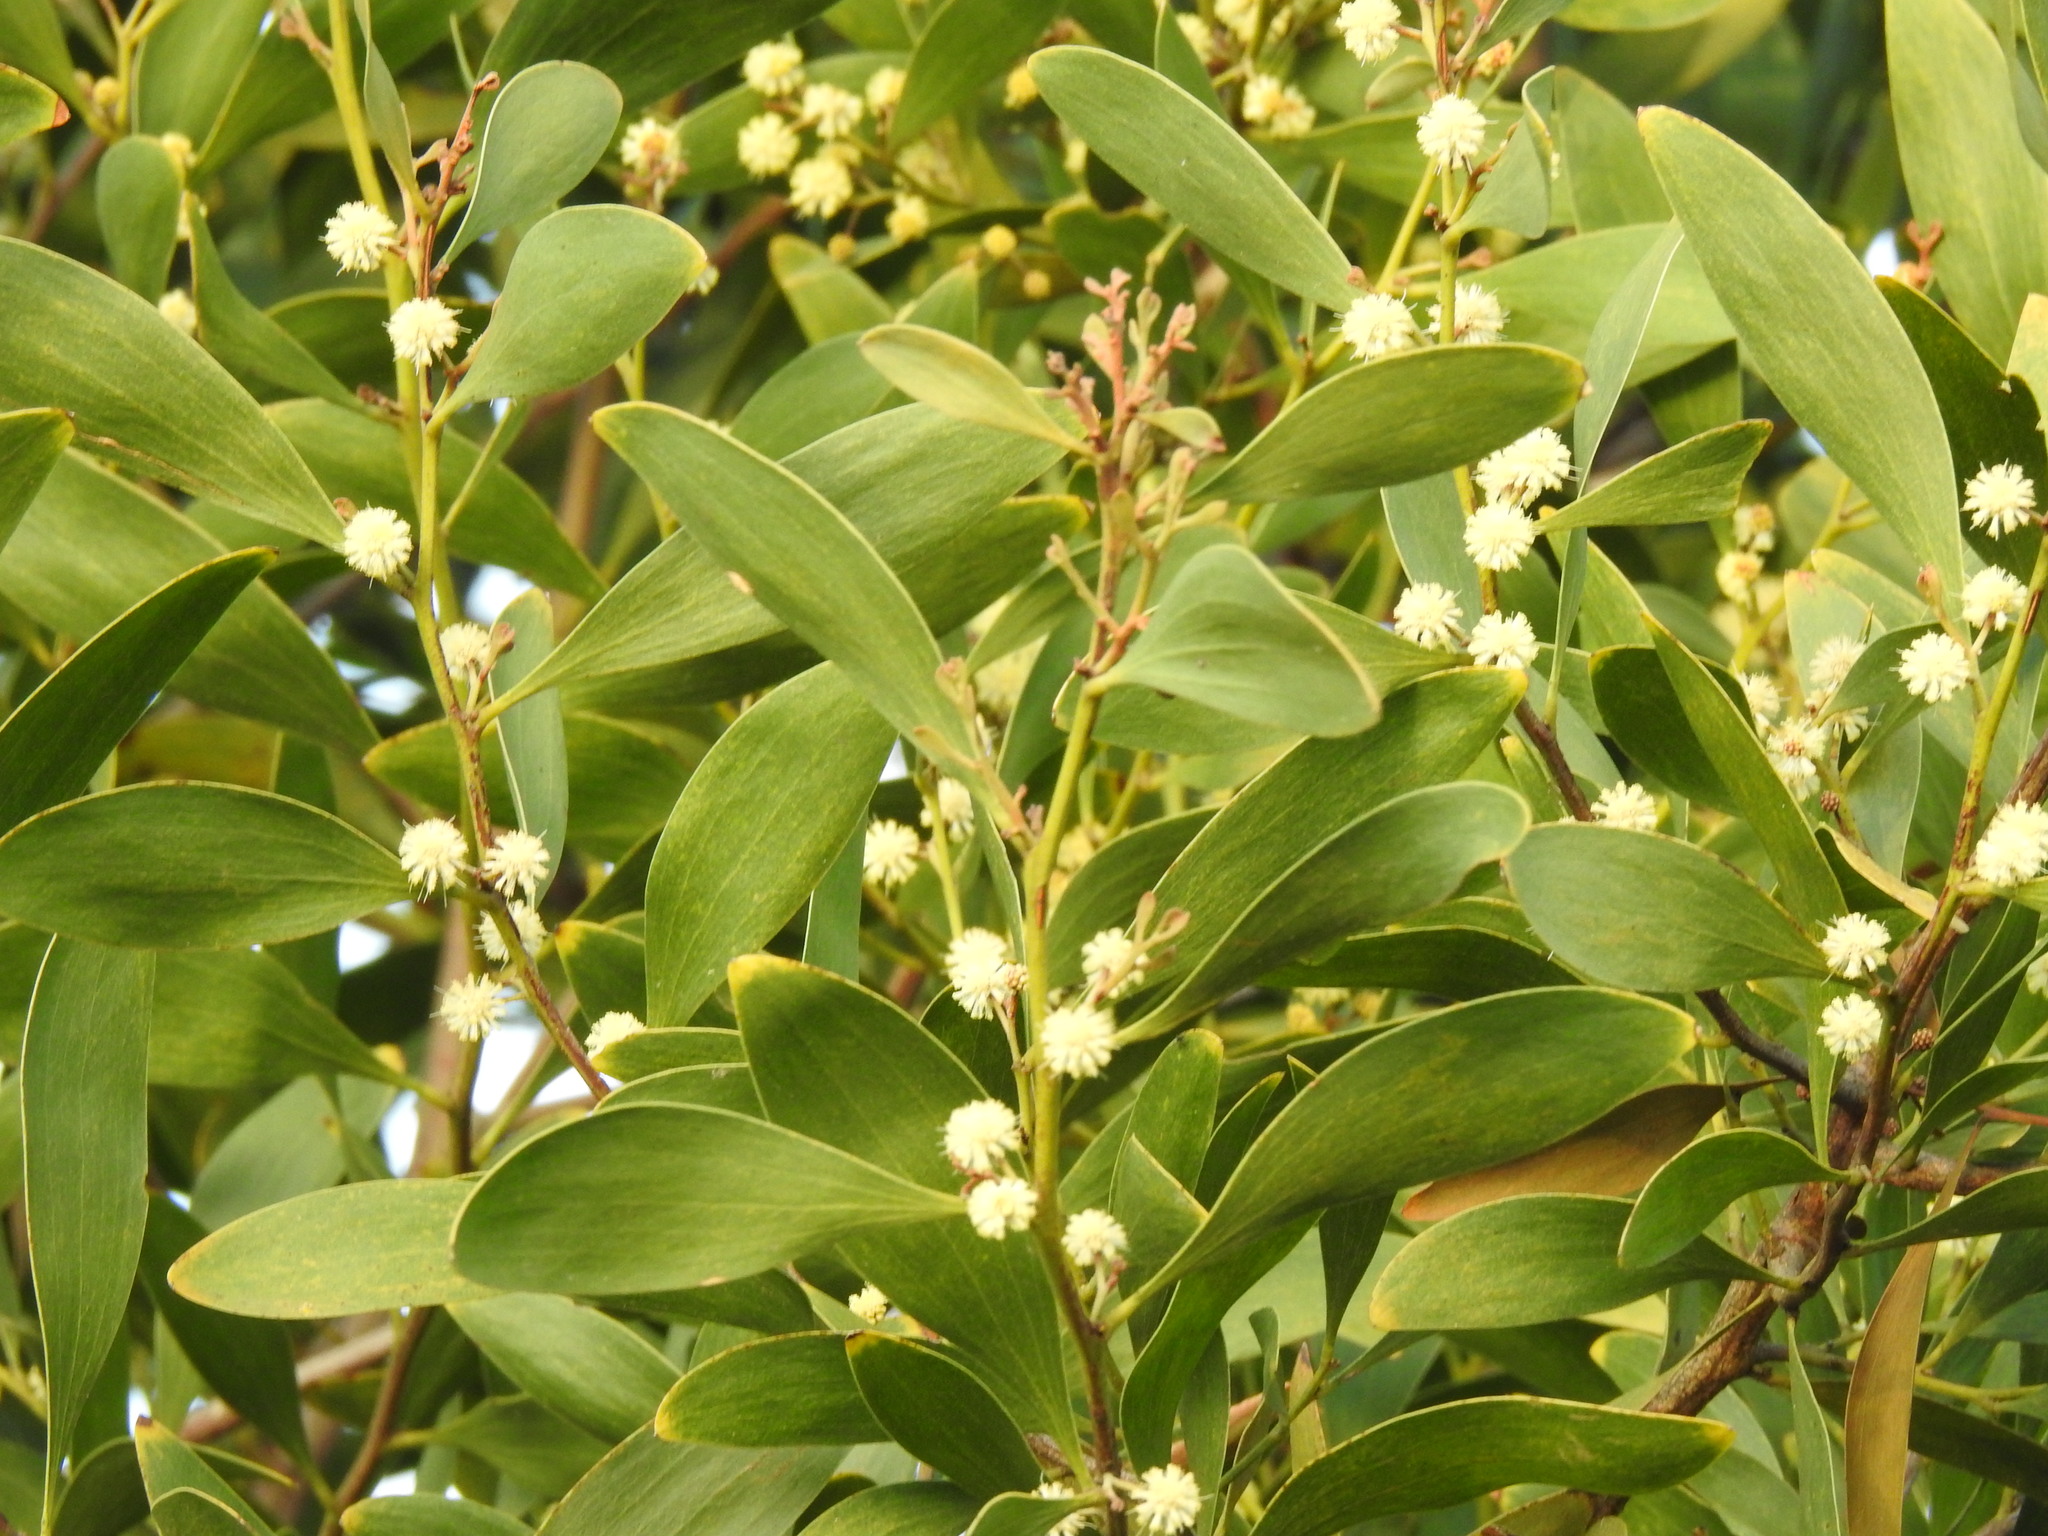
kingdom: Plantae
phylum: Tracheophyta
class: Magnoliopsida
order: Fabales
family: Fabaceae
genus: Acacia
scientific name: Acacia melanoxylon
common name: Blackwood
